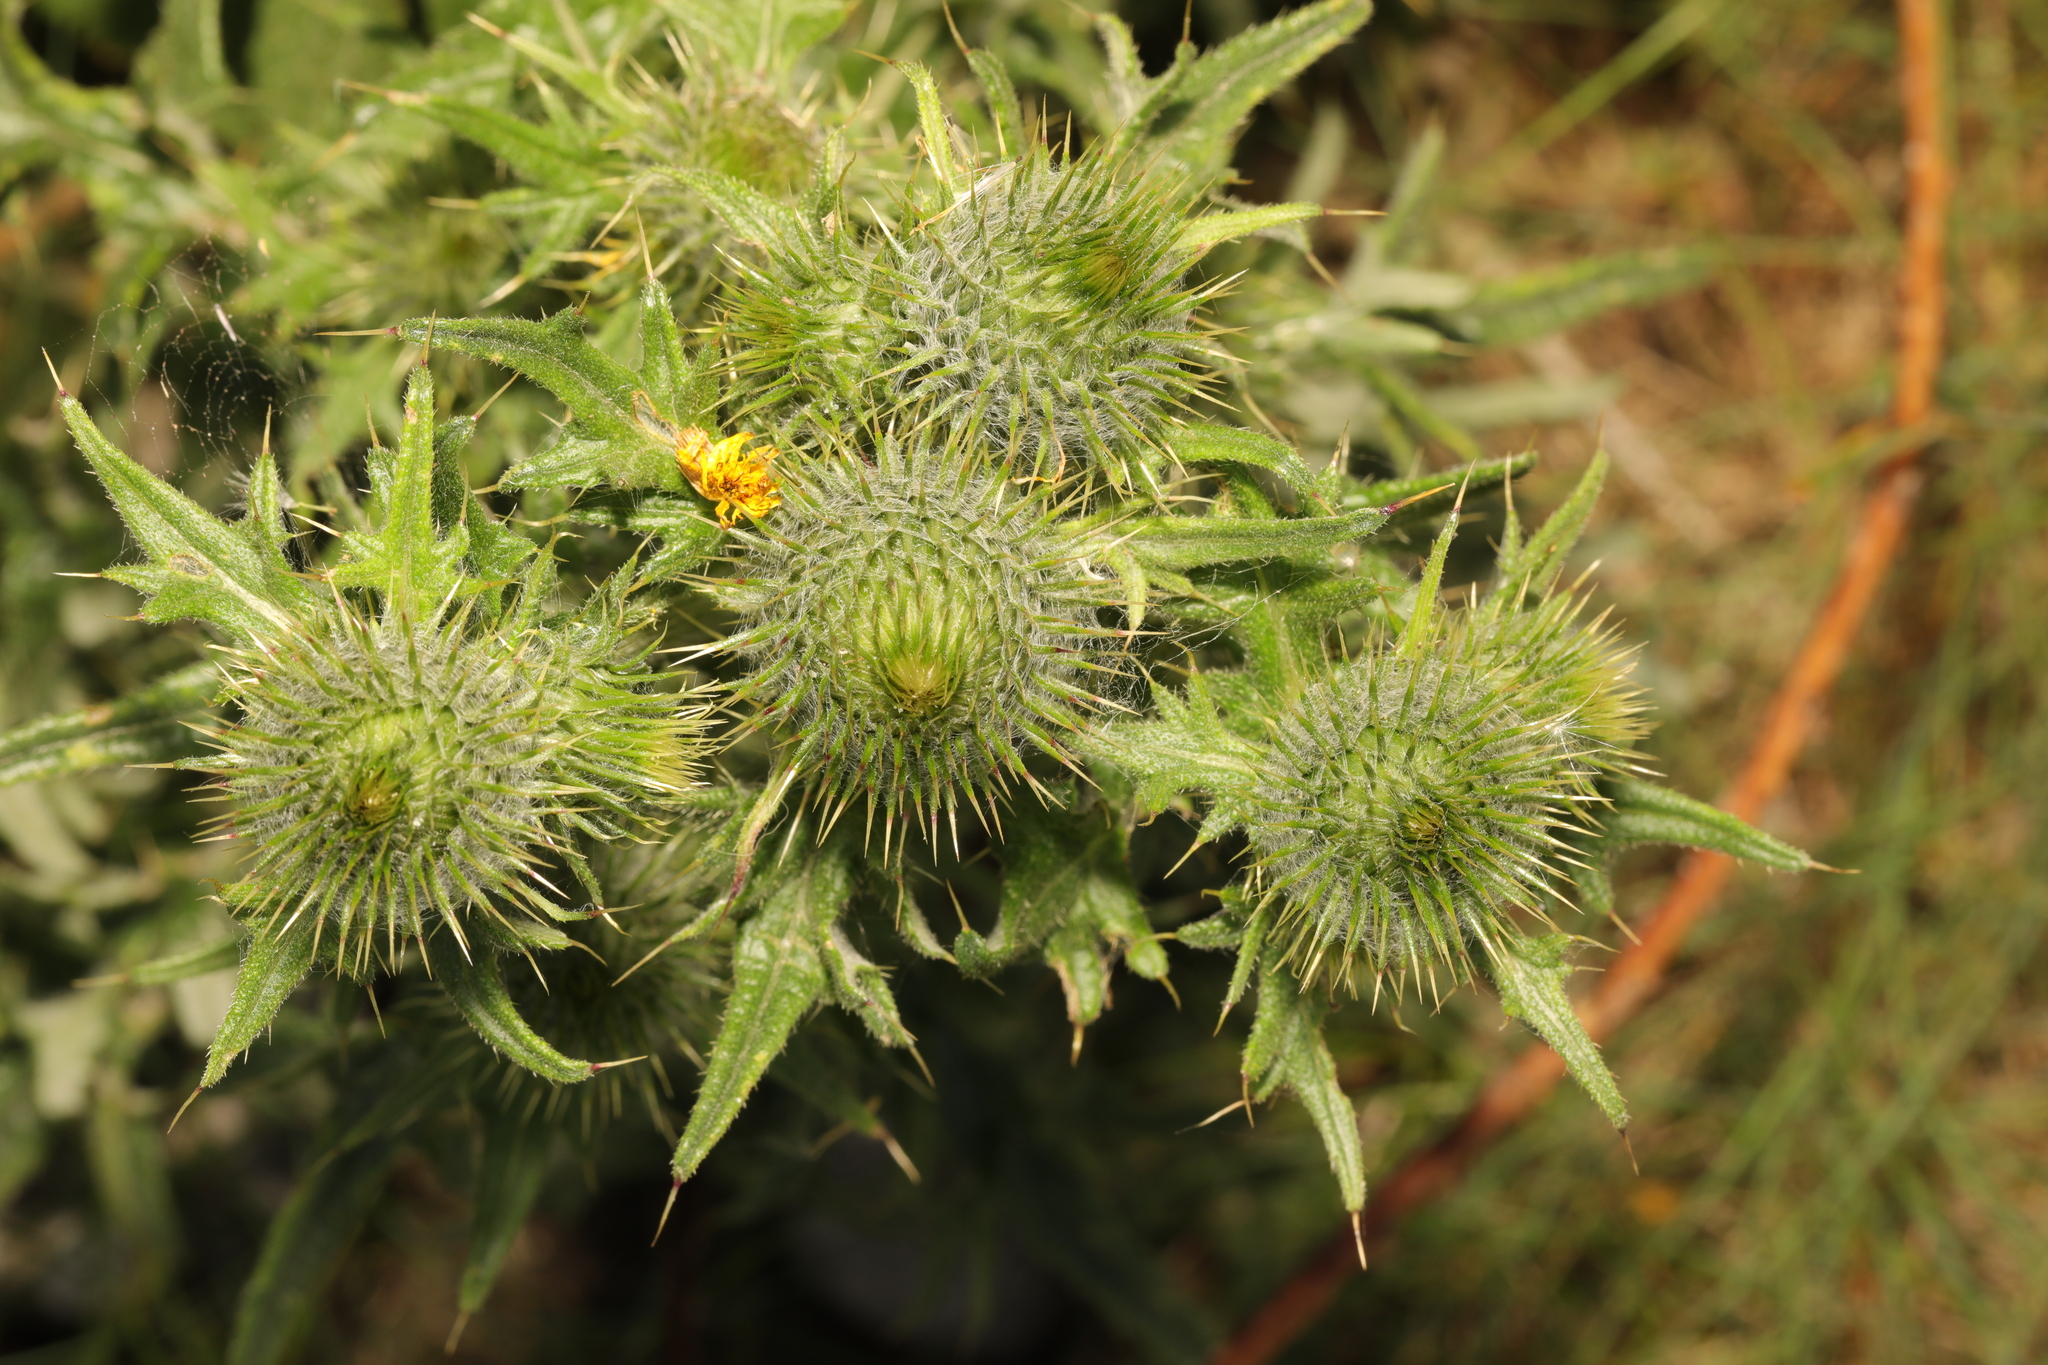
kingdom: Plantae
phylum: Tracheophyta
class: Magnoliopsida
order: Asterales
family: Asteraceae
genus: Cirsium
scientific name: Cirsium vulgare
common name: Bull thistle
